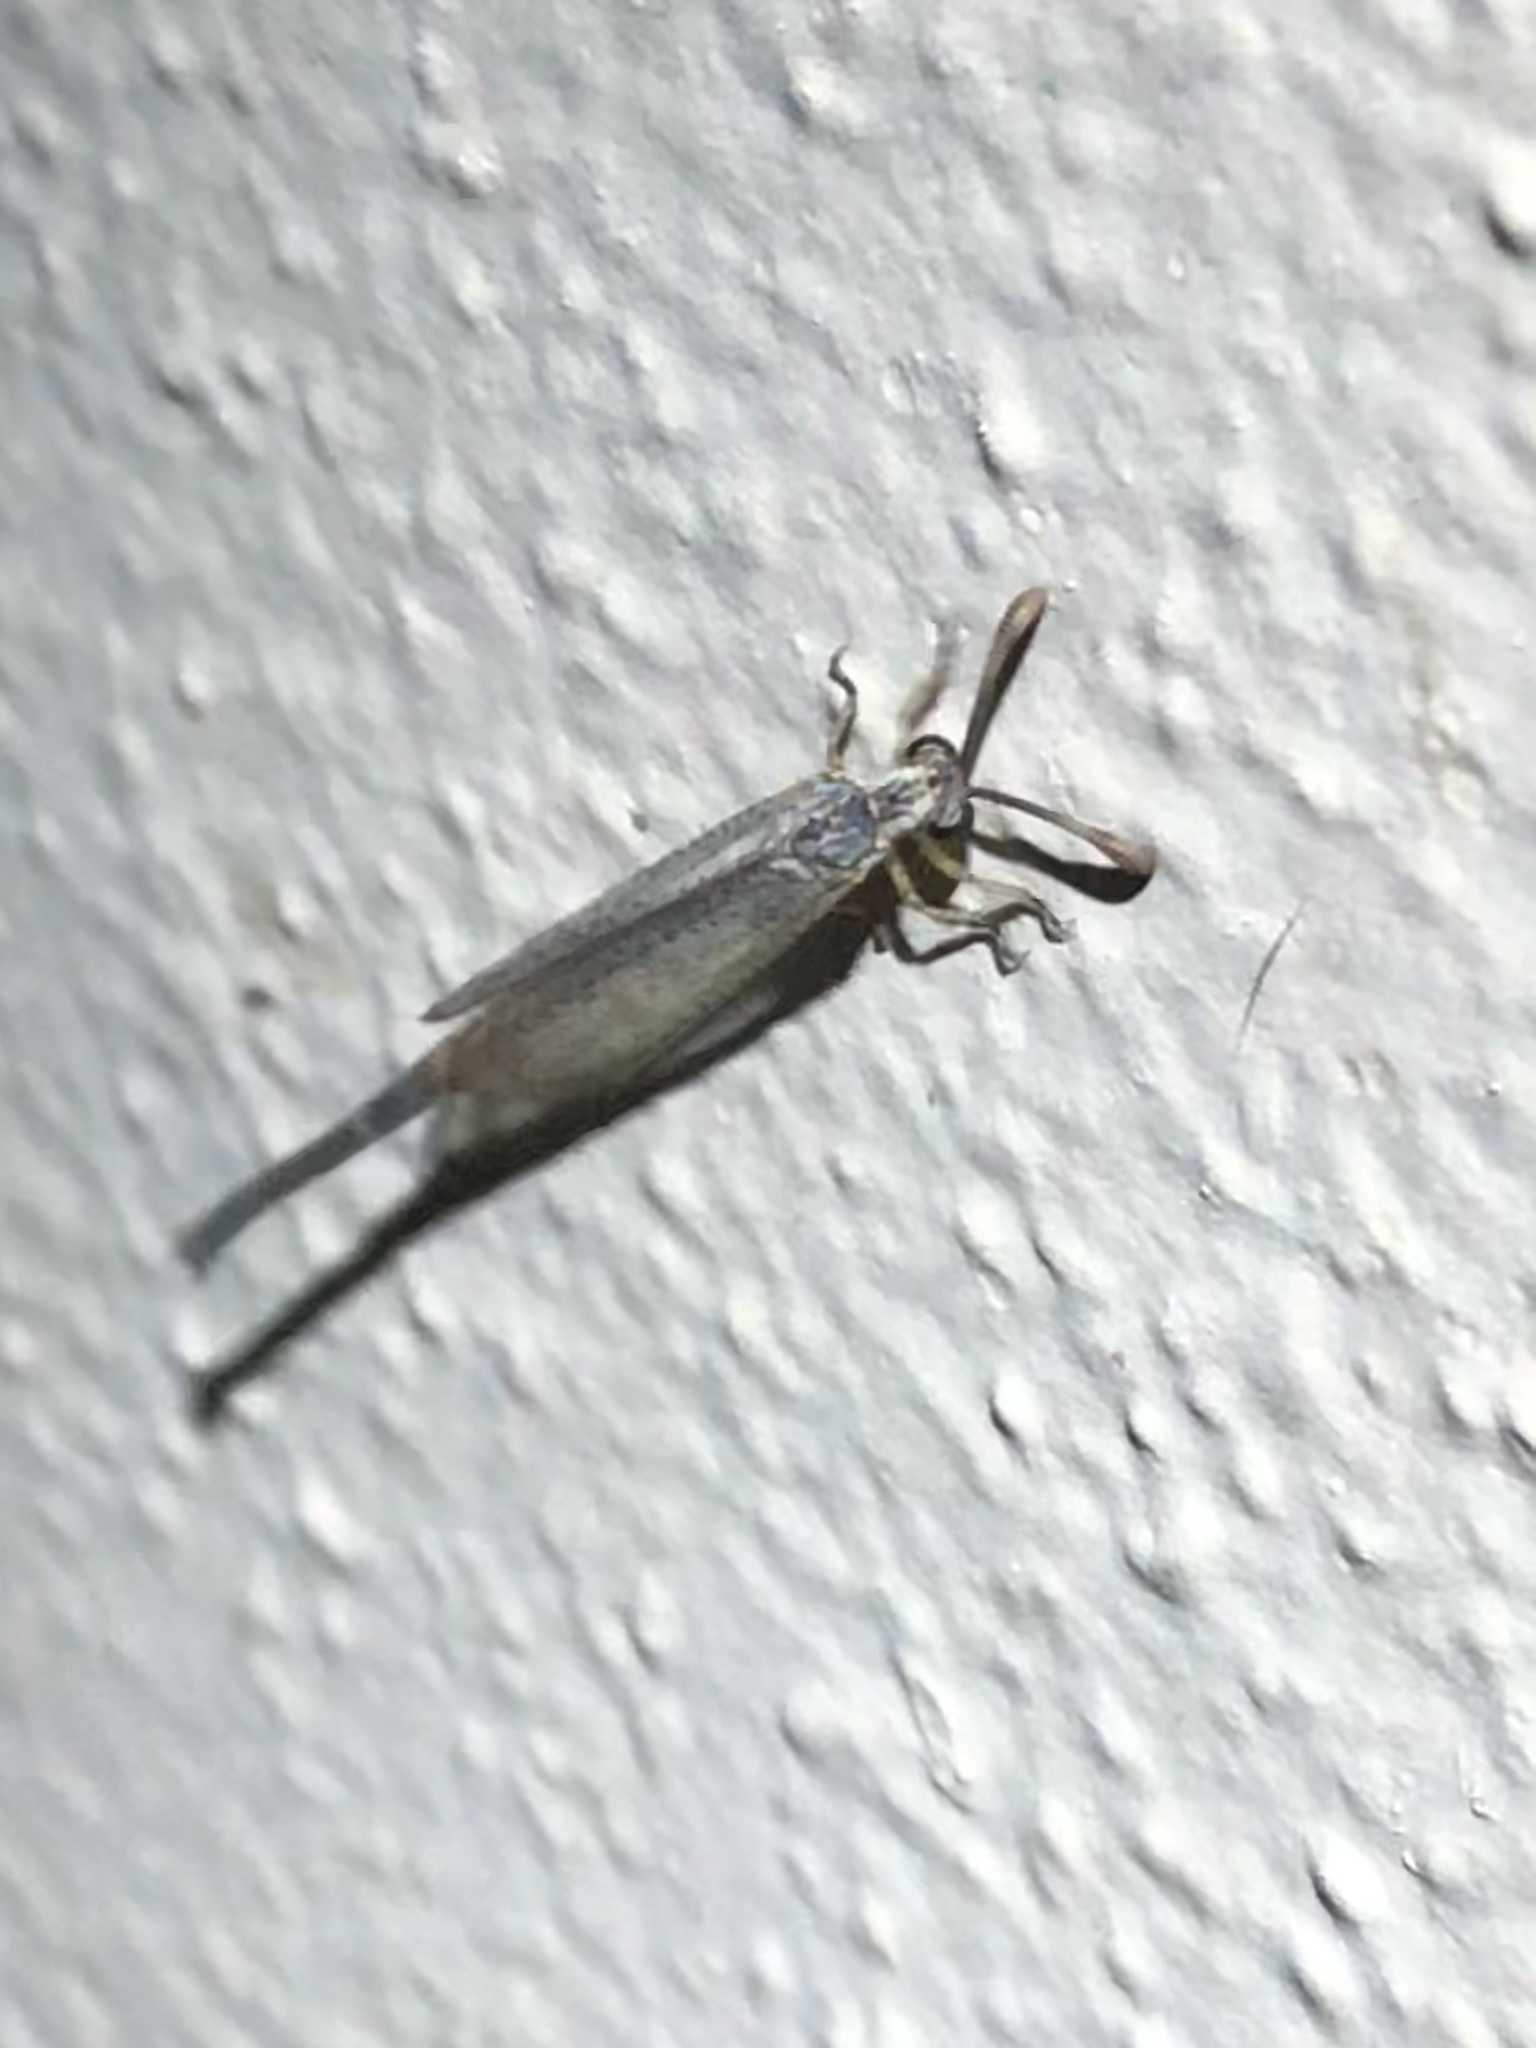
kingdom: Animalia
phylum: Arthropoda
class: Insecta
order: Neuroptera
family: Myrmeleontidae
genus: Clathroneuria
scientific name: Clathroneuria coquilletti
